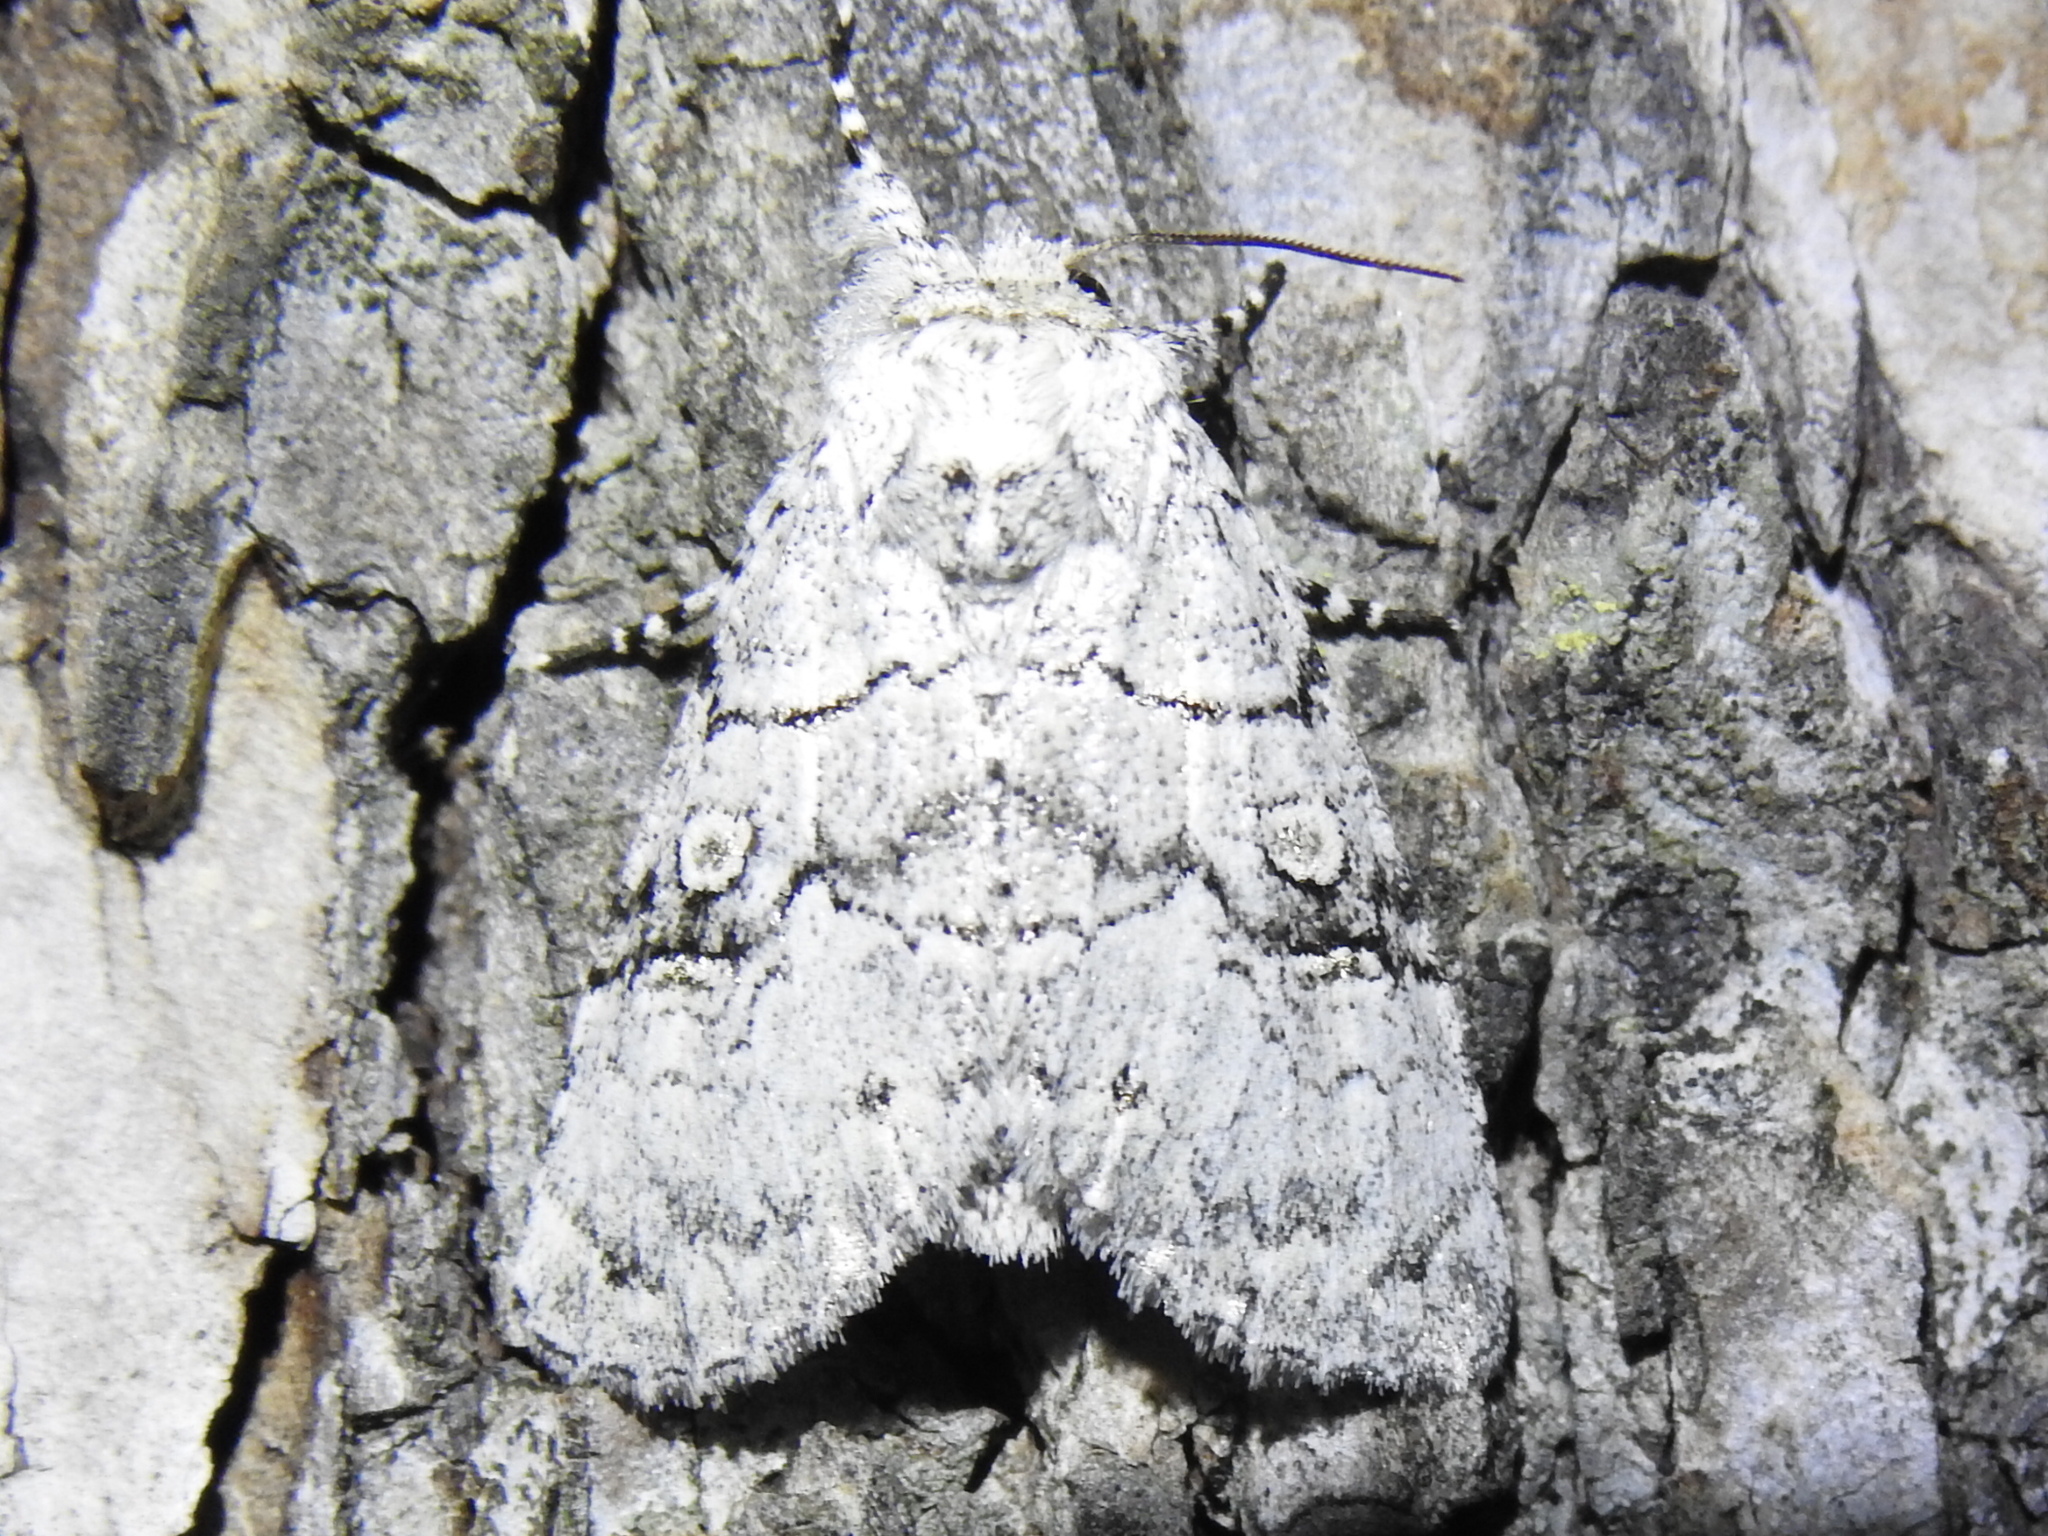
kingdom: Animalia
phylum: Arthropoda
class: Insecta
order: Lepidoptera
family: Noctuidae
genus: Charadra
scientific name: Charadra dispulsa
